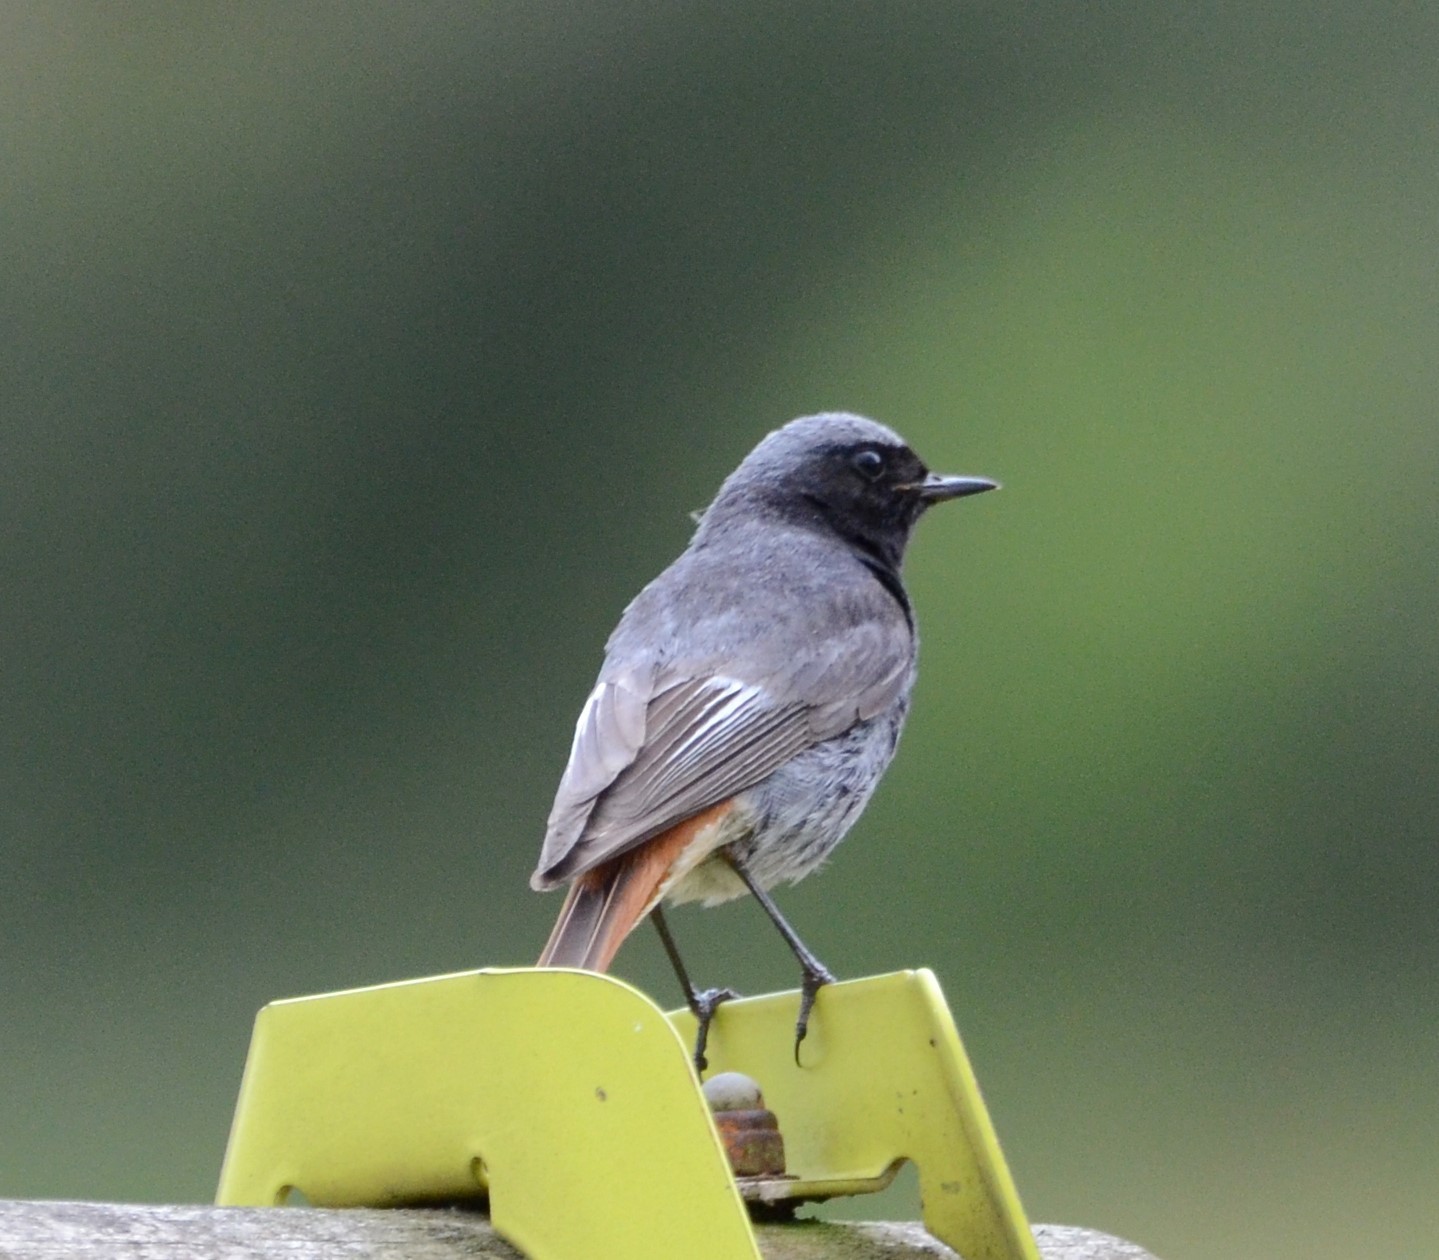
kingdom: Animalia
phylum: Chordata
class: Aves
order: Passeriformes
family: Muscicapidae
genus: Phoenicurus
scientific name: Phoenicurus ochruros
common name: Black redstart
